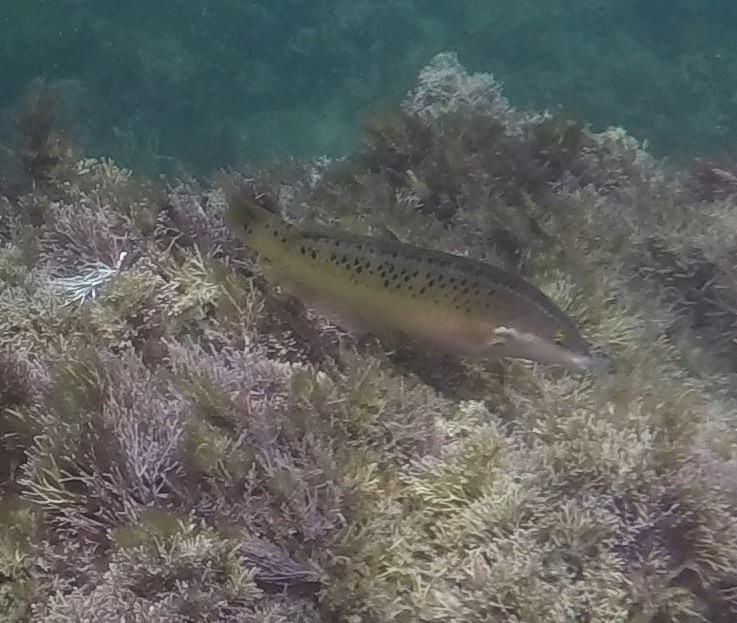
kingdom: Animalia
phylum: Chordata
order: Perciformes
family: Labridae
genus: Halichoeres
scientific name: Halichoeres semicinctus
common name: Rock wrasse
